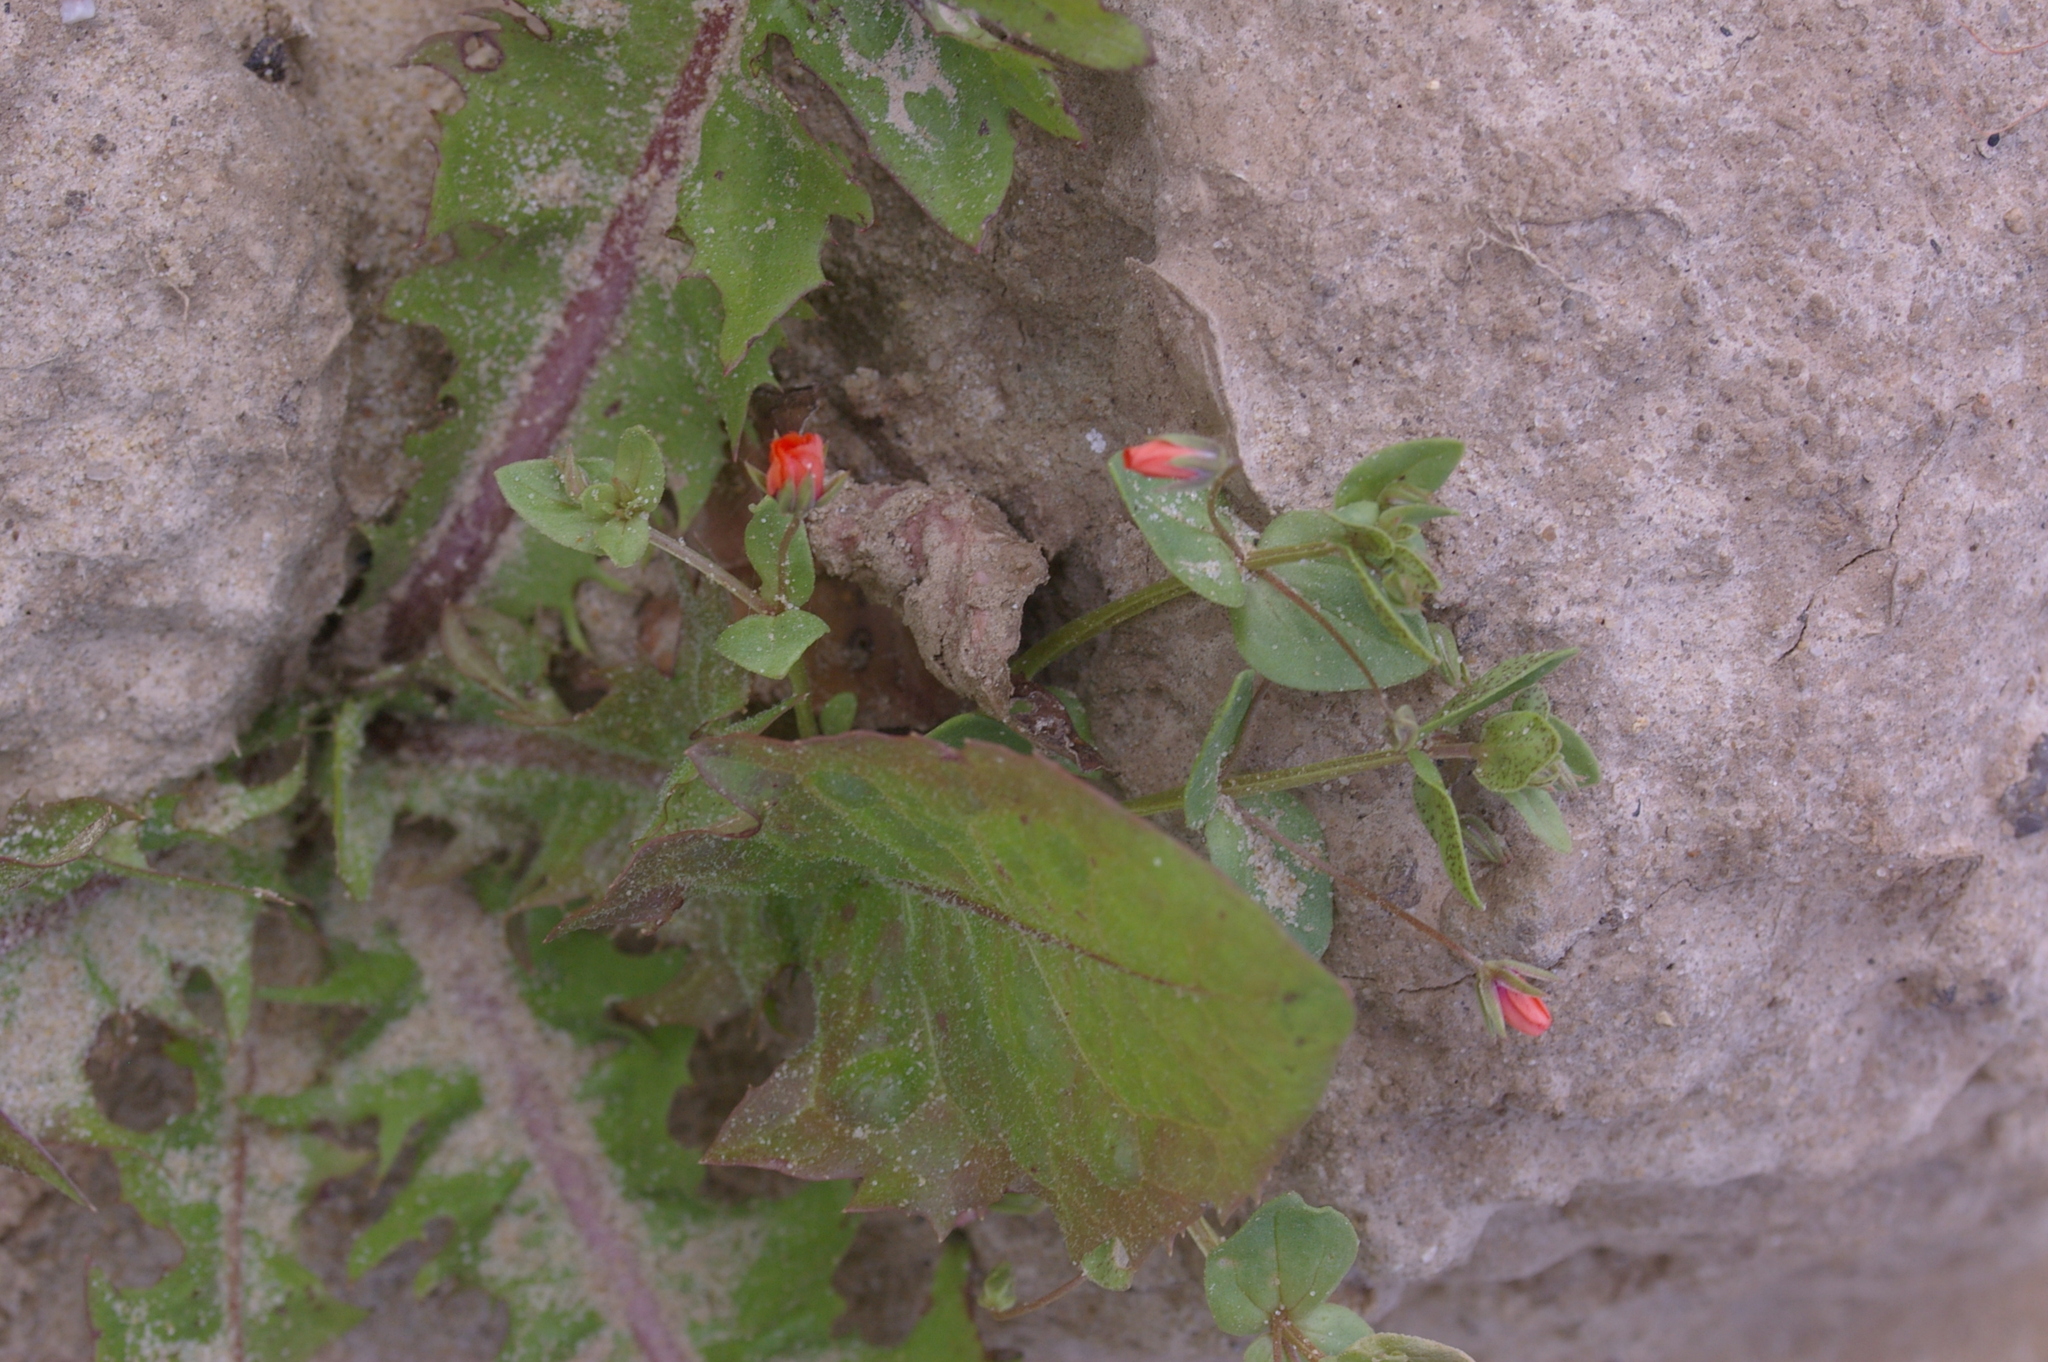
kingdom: Plantae
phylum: Tracheophyta
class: Magnoliopsida
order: Ericales
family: Primulaceae
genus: Lysimachia
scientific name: Lysimachia arvensis
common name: Scarlet pimpernel
